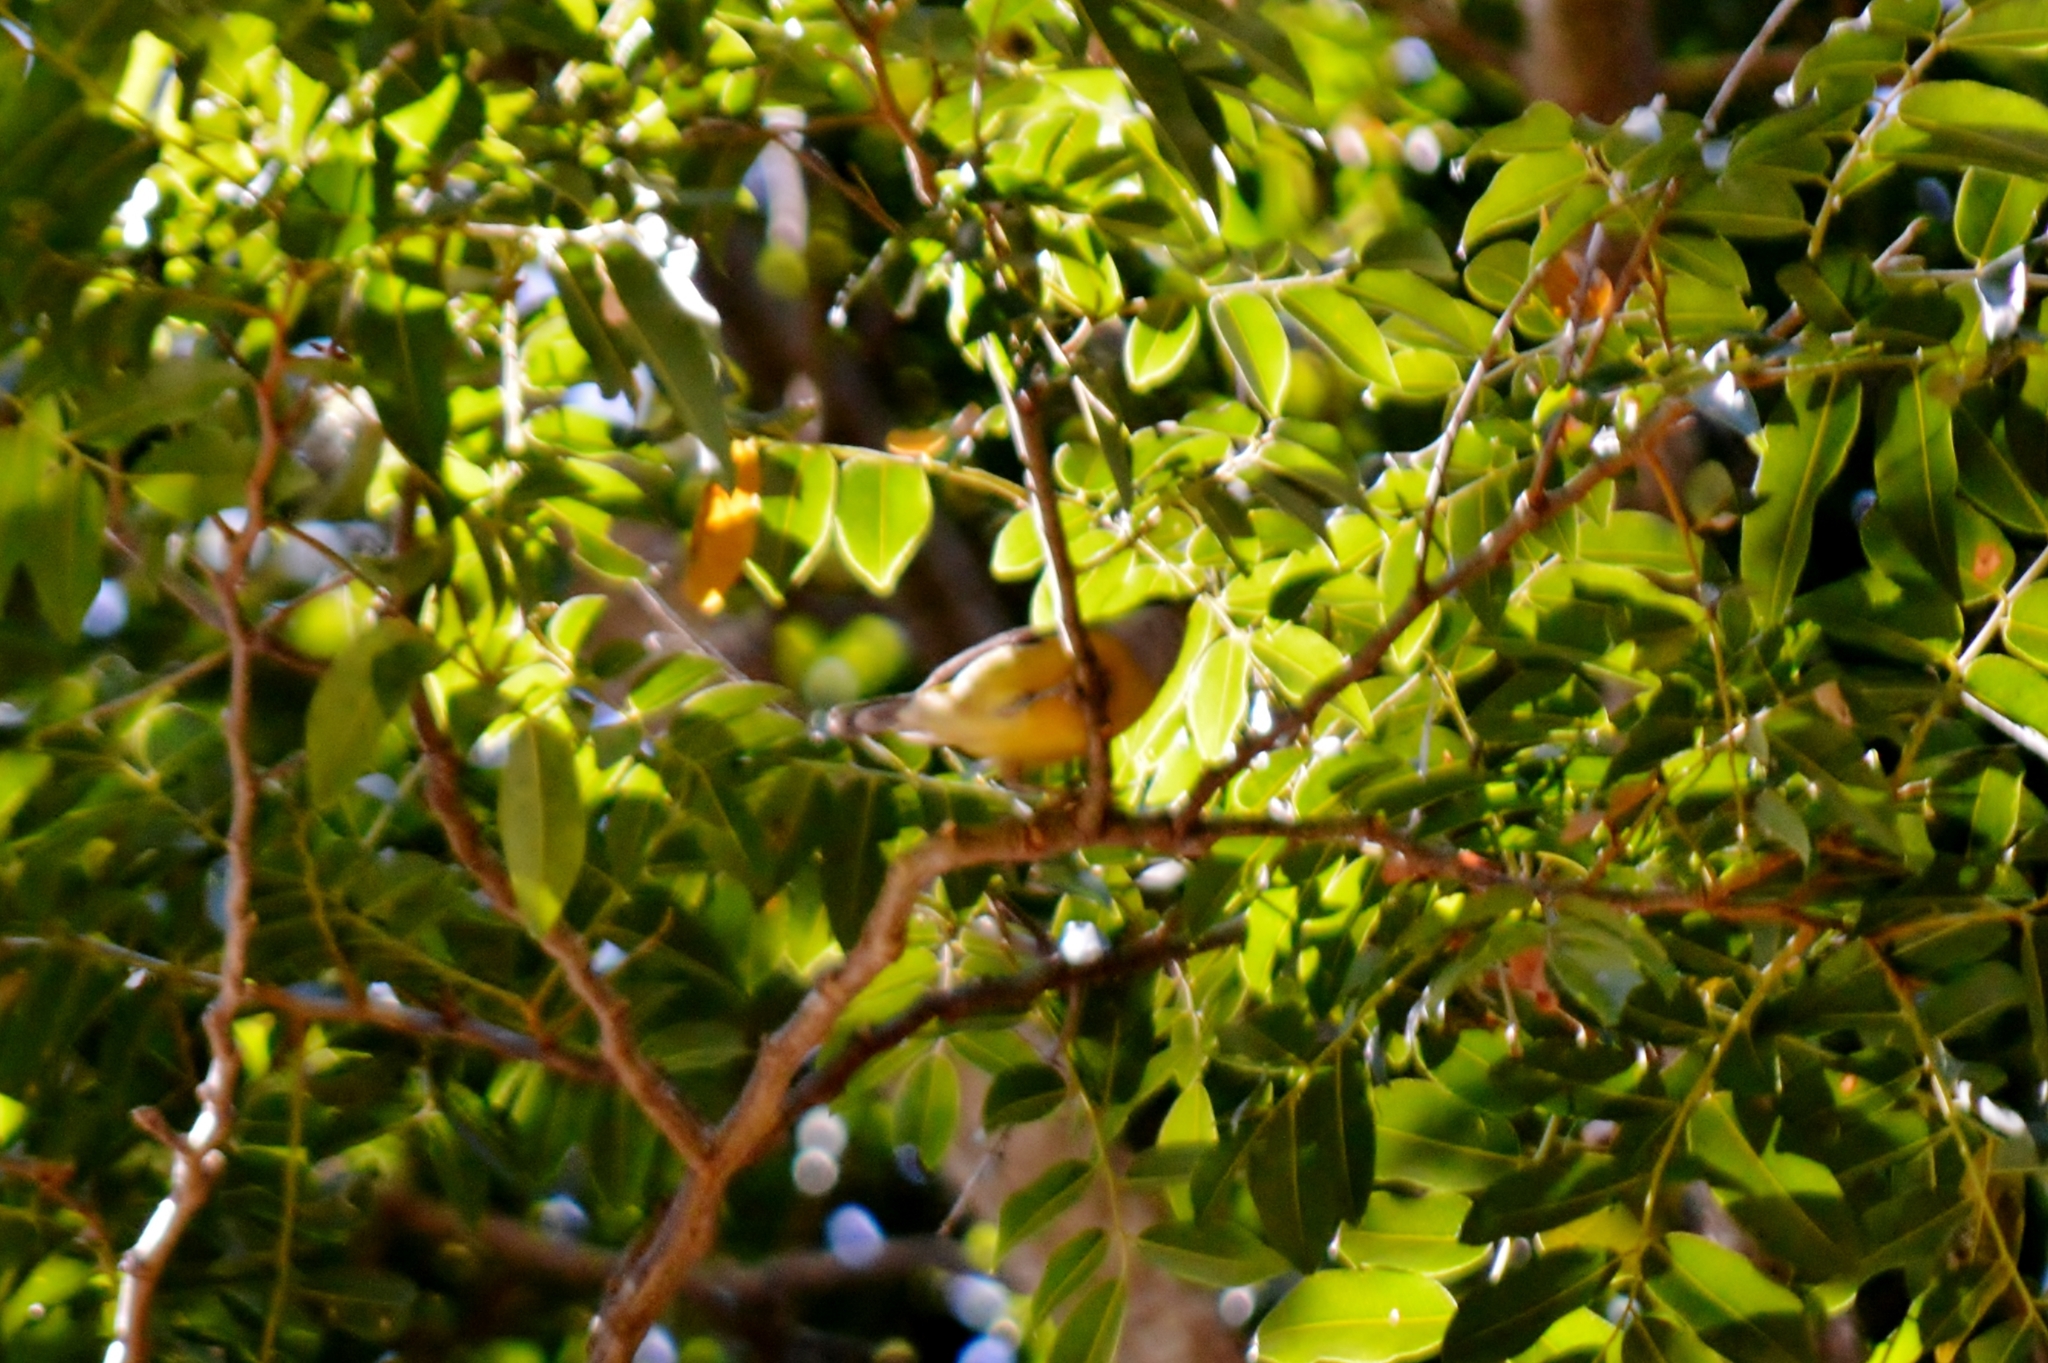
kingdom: Animalia
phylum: Chordata
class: Aves
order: Passeriformes
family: Parulidae
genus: Setophaga
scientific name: Setophaga pitiayumi
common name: Tropical parula
